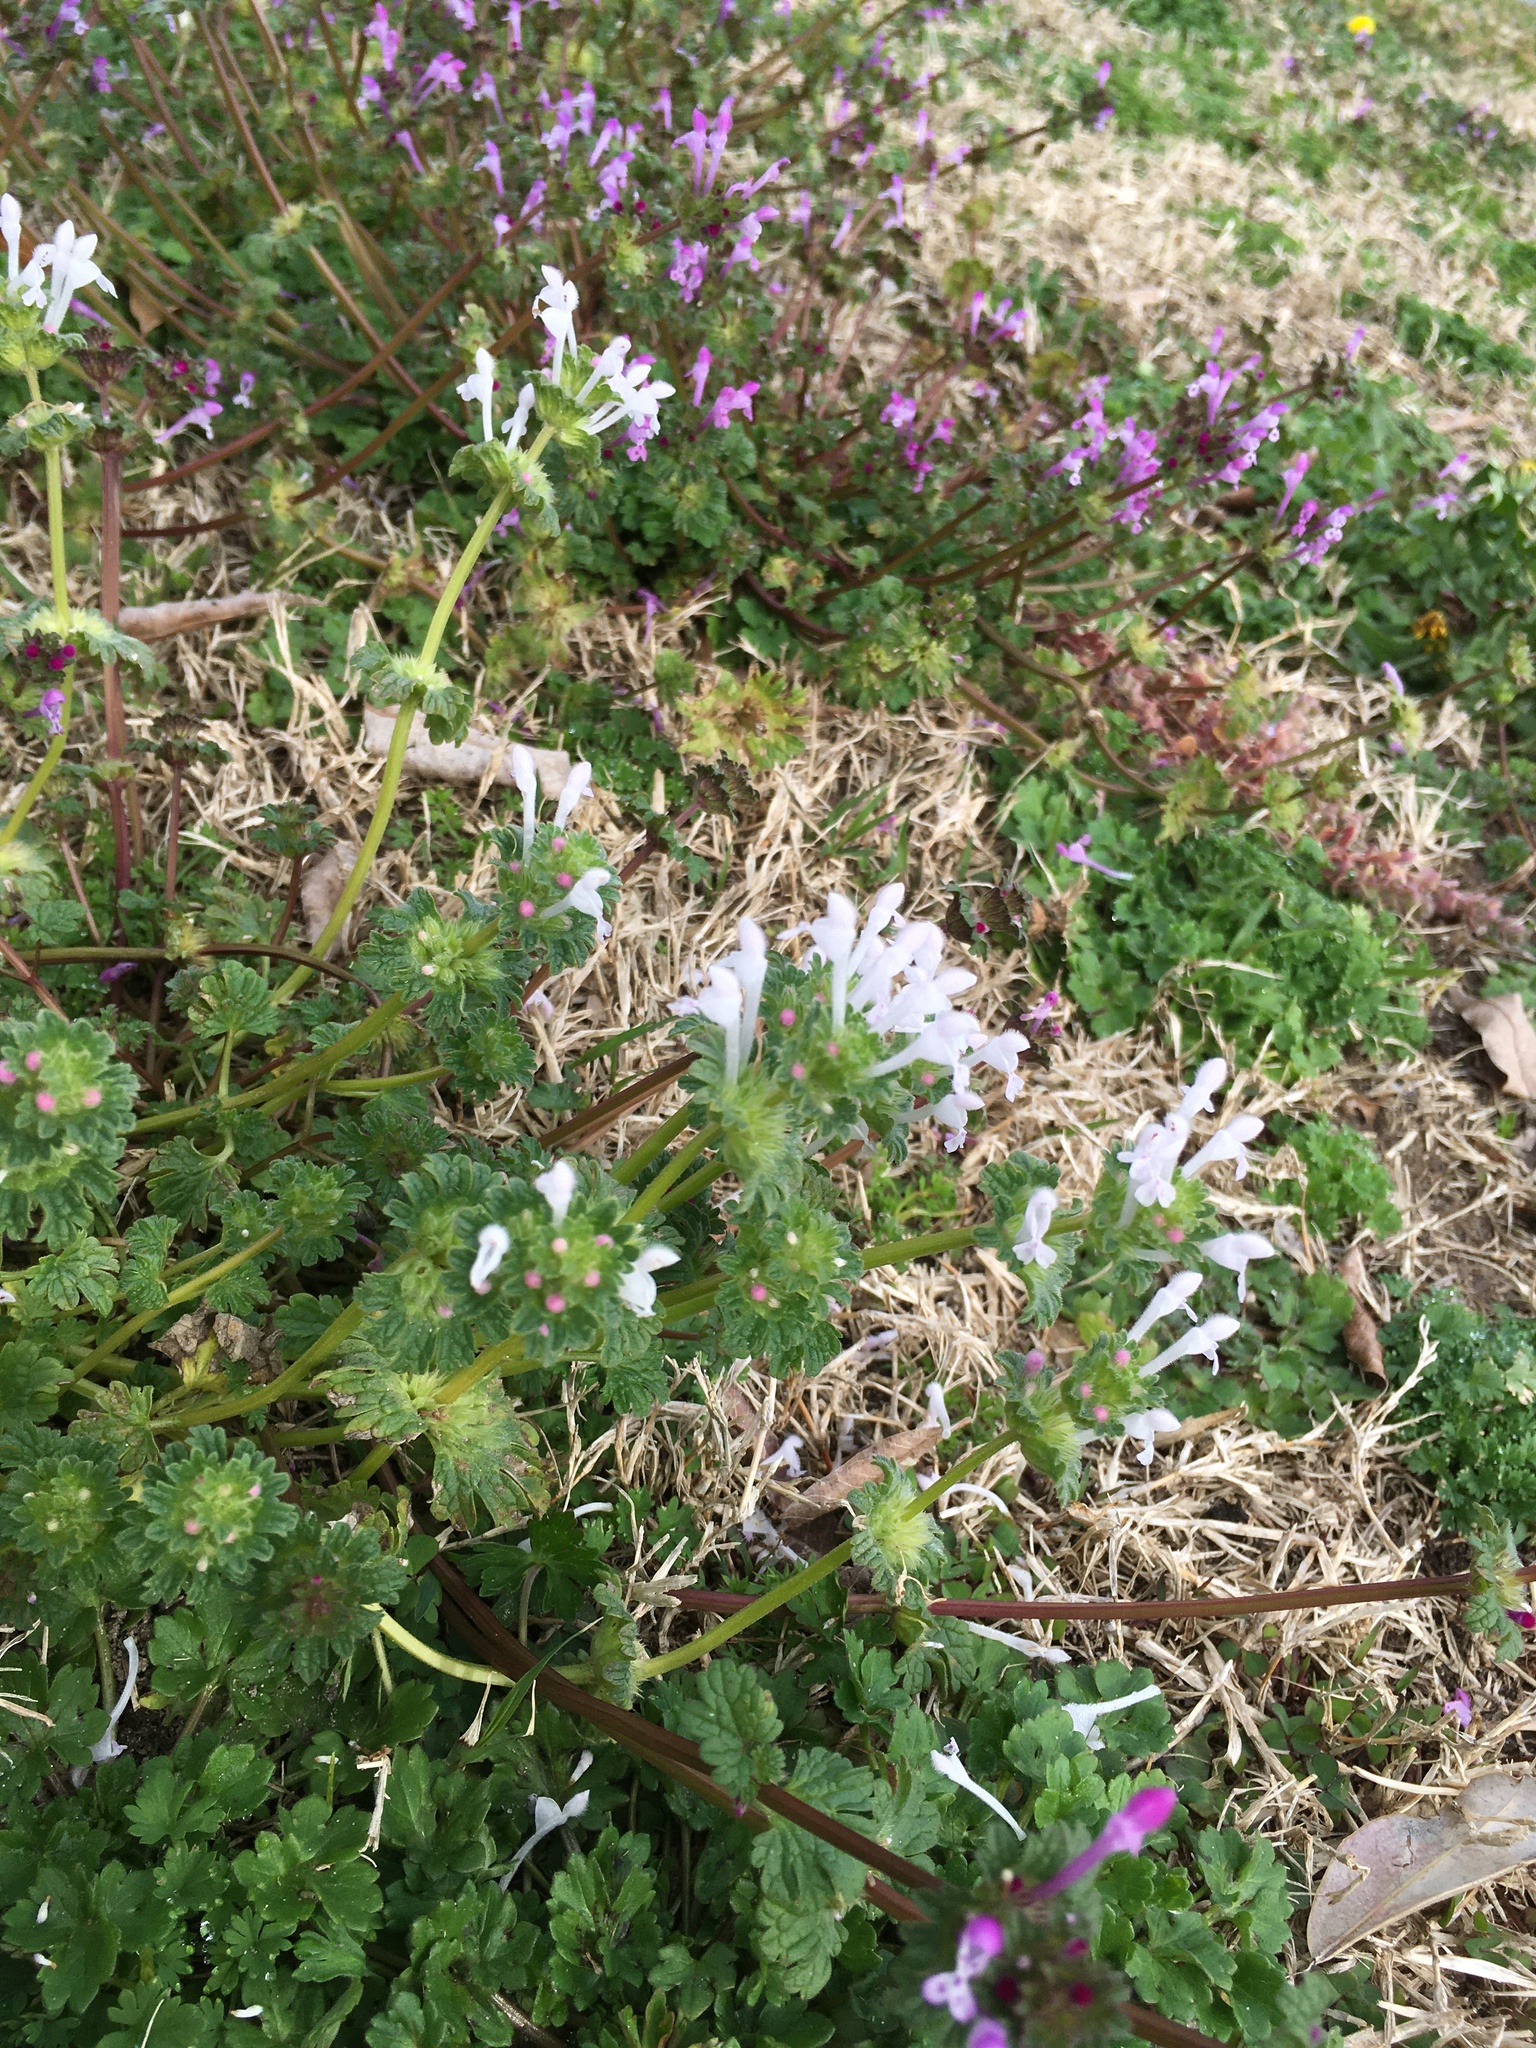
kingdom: Plantae
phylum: Tracheophyta
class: Magnoliopsida
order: Lamiales
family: Lamiaceae
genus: Lamium
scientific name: Lamium amplexicaule
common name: Henbit dead-nettle
